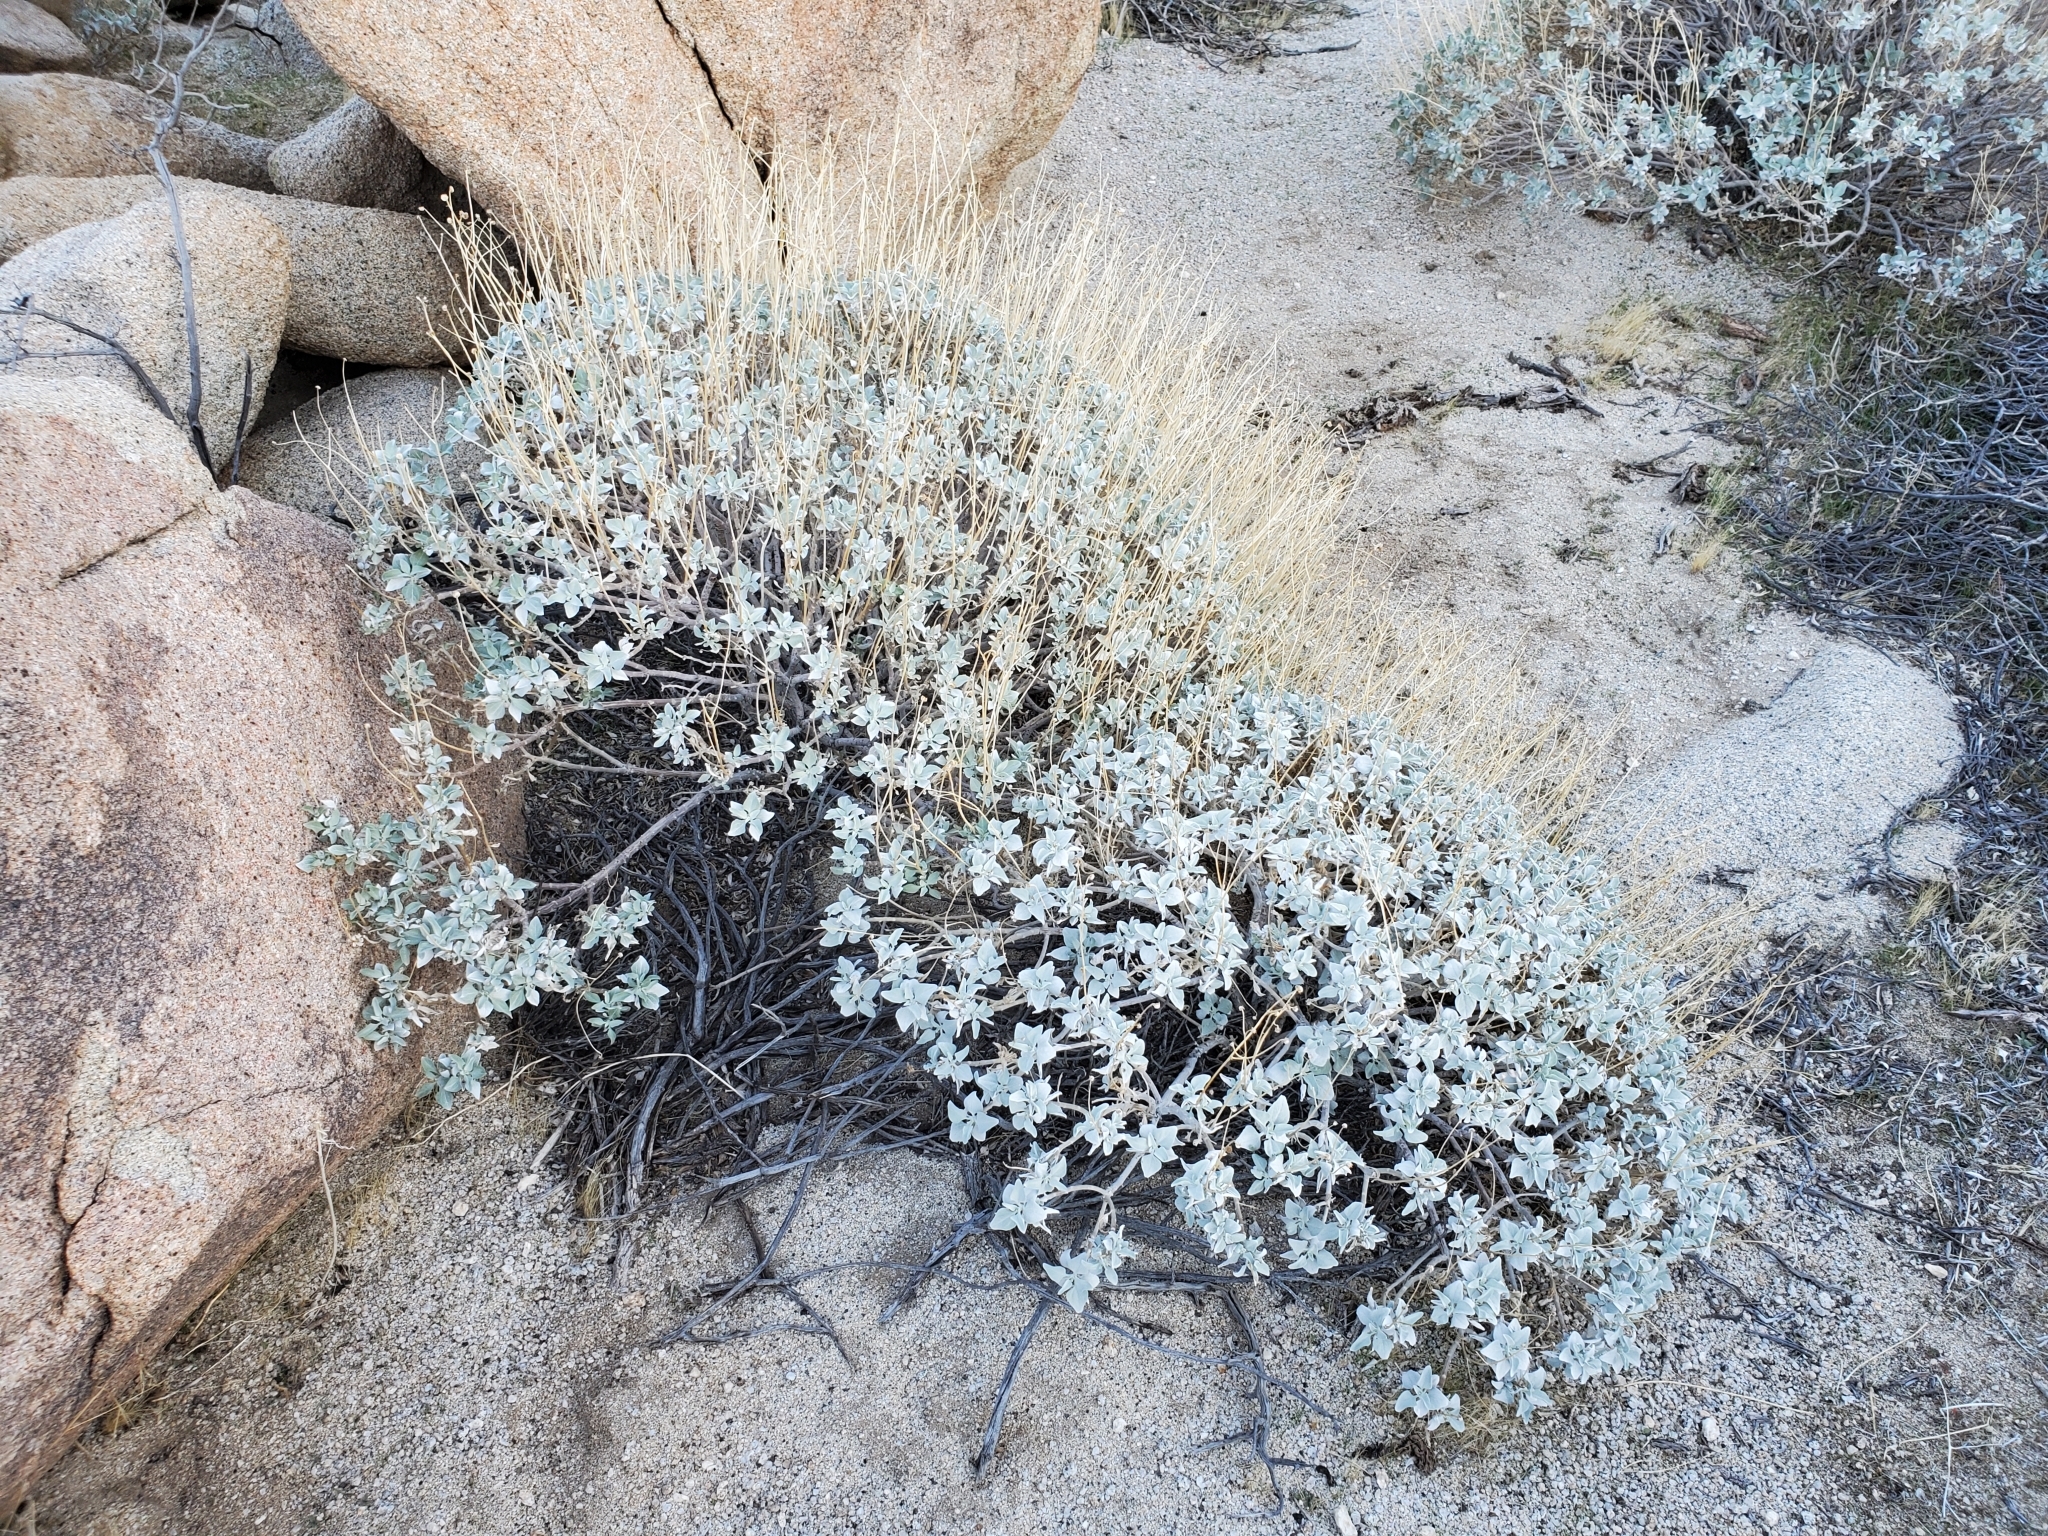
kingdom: Plantae
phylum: Tracheophyta
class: Magnoliopsida
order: Asterales
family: Asteraceae
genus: Encelia
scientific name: Encelia farinosa
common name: Brittlebush
